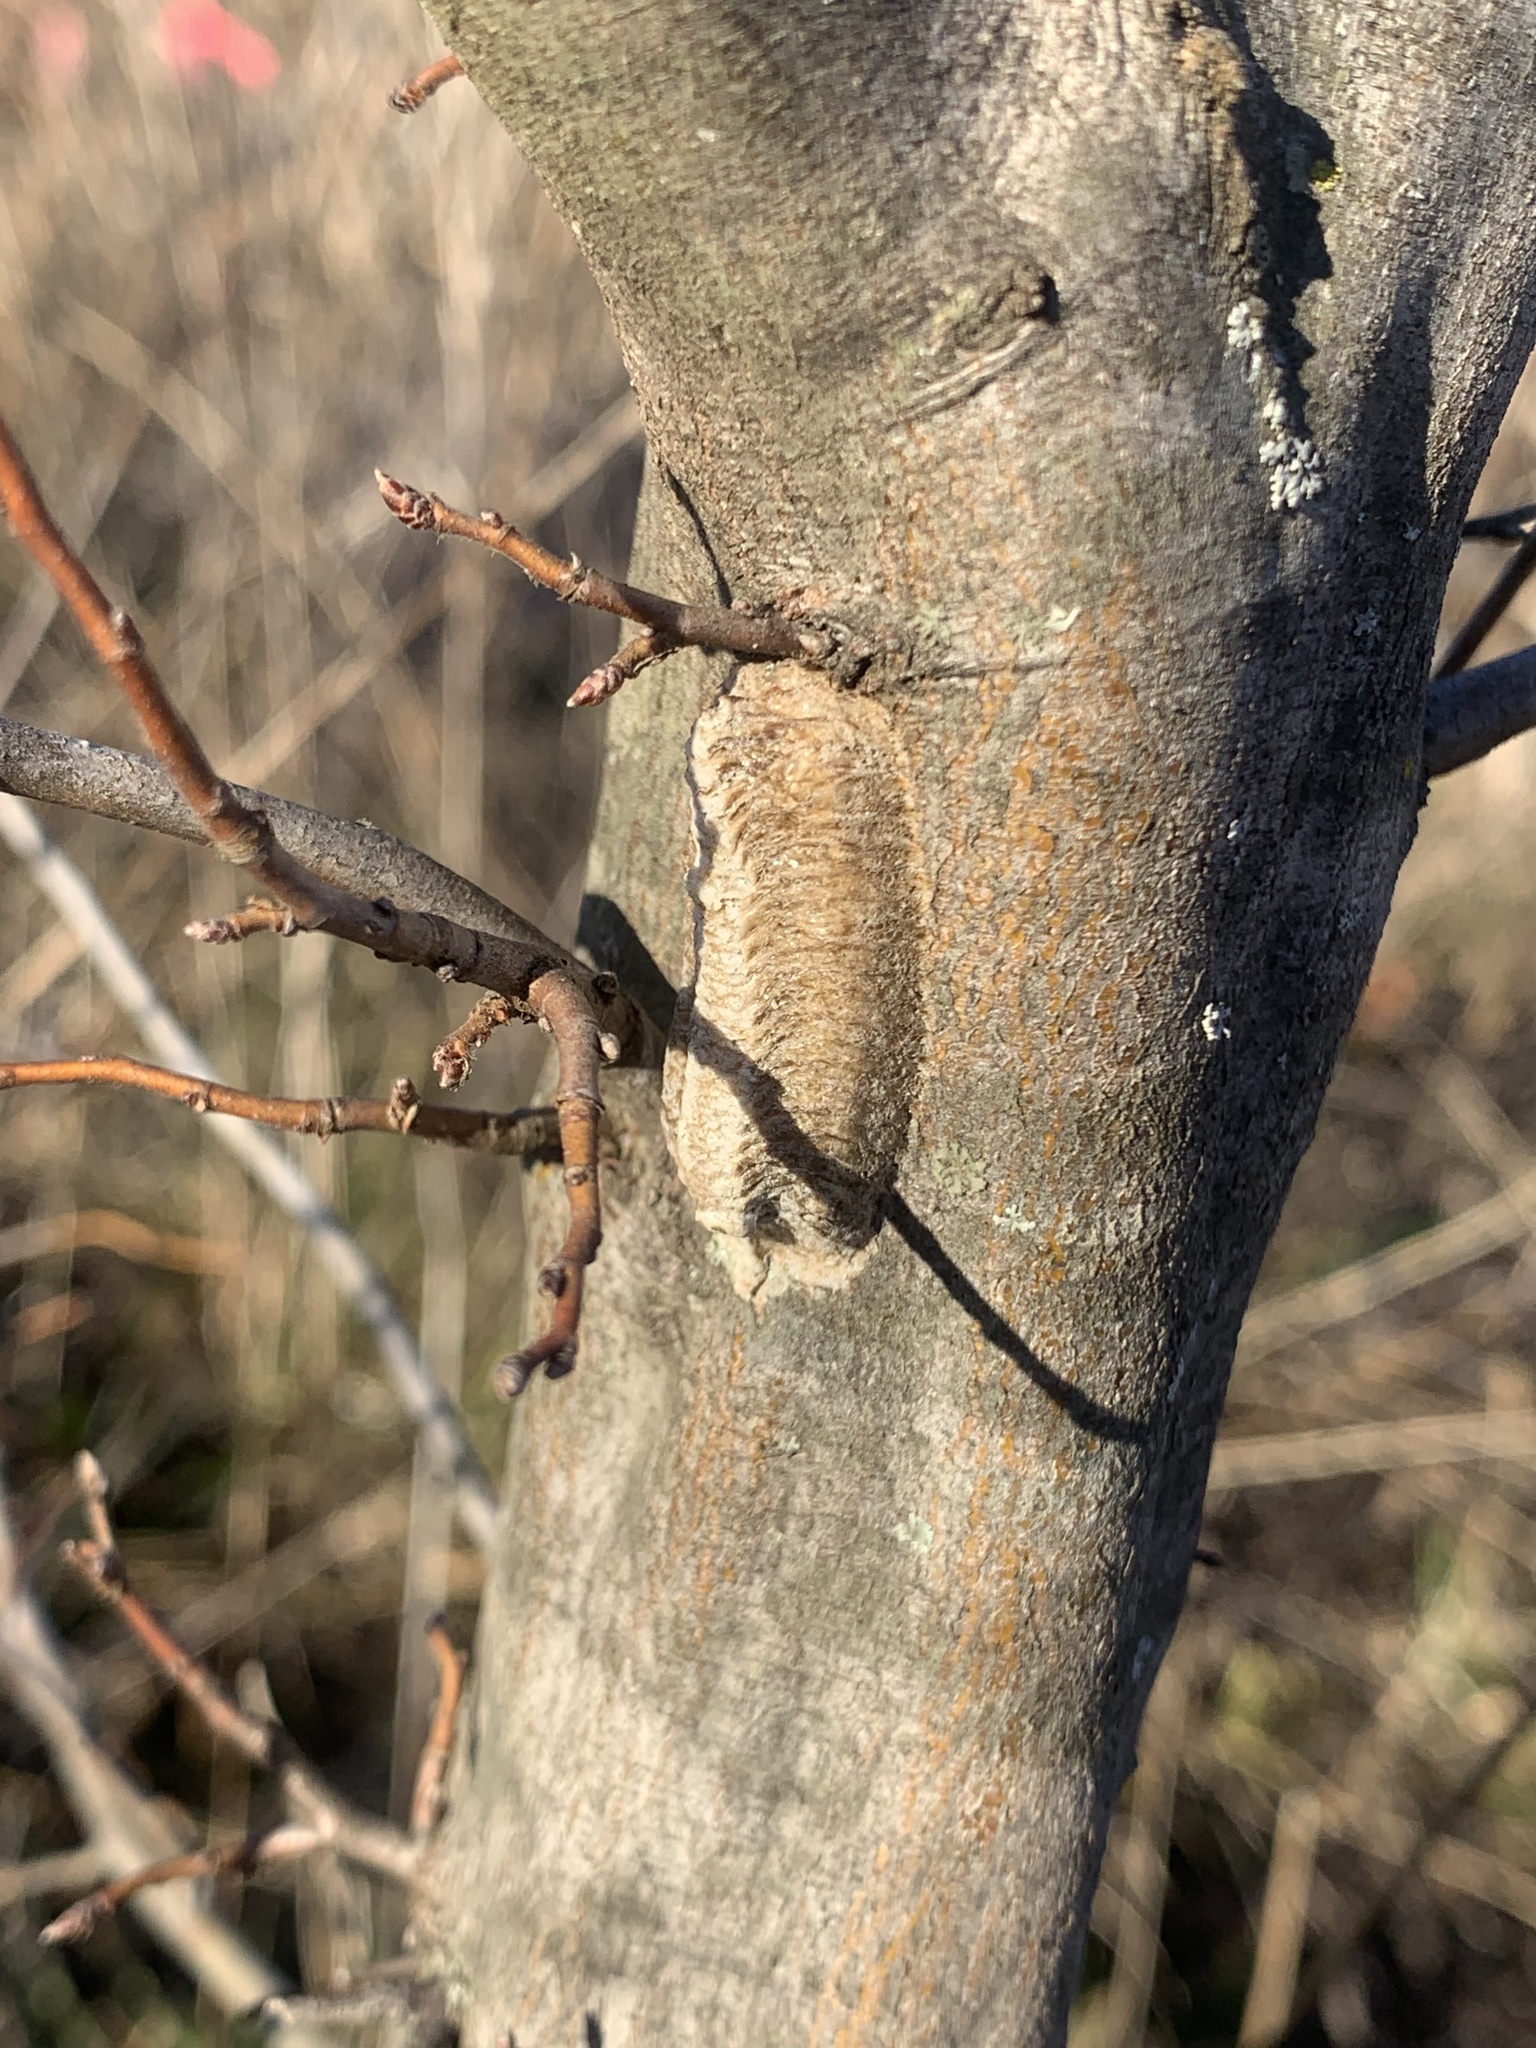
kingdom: Animalia
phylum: Arthropoda
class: Insecta
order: Mantodea
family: Mantidae
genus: Stagmomantis
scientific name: Stagmomantis carolina
